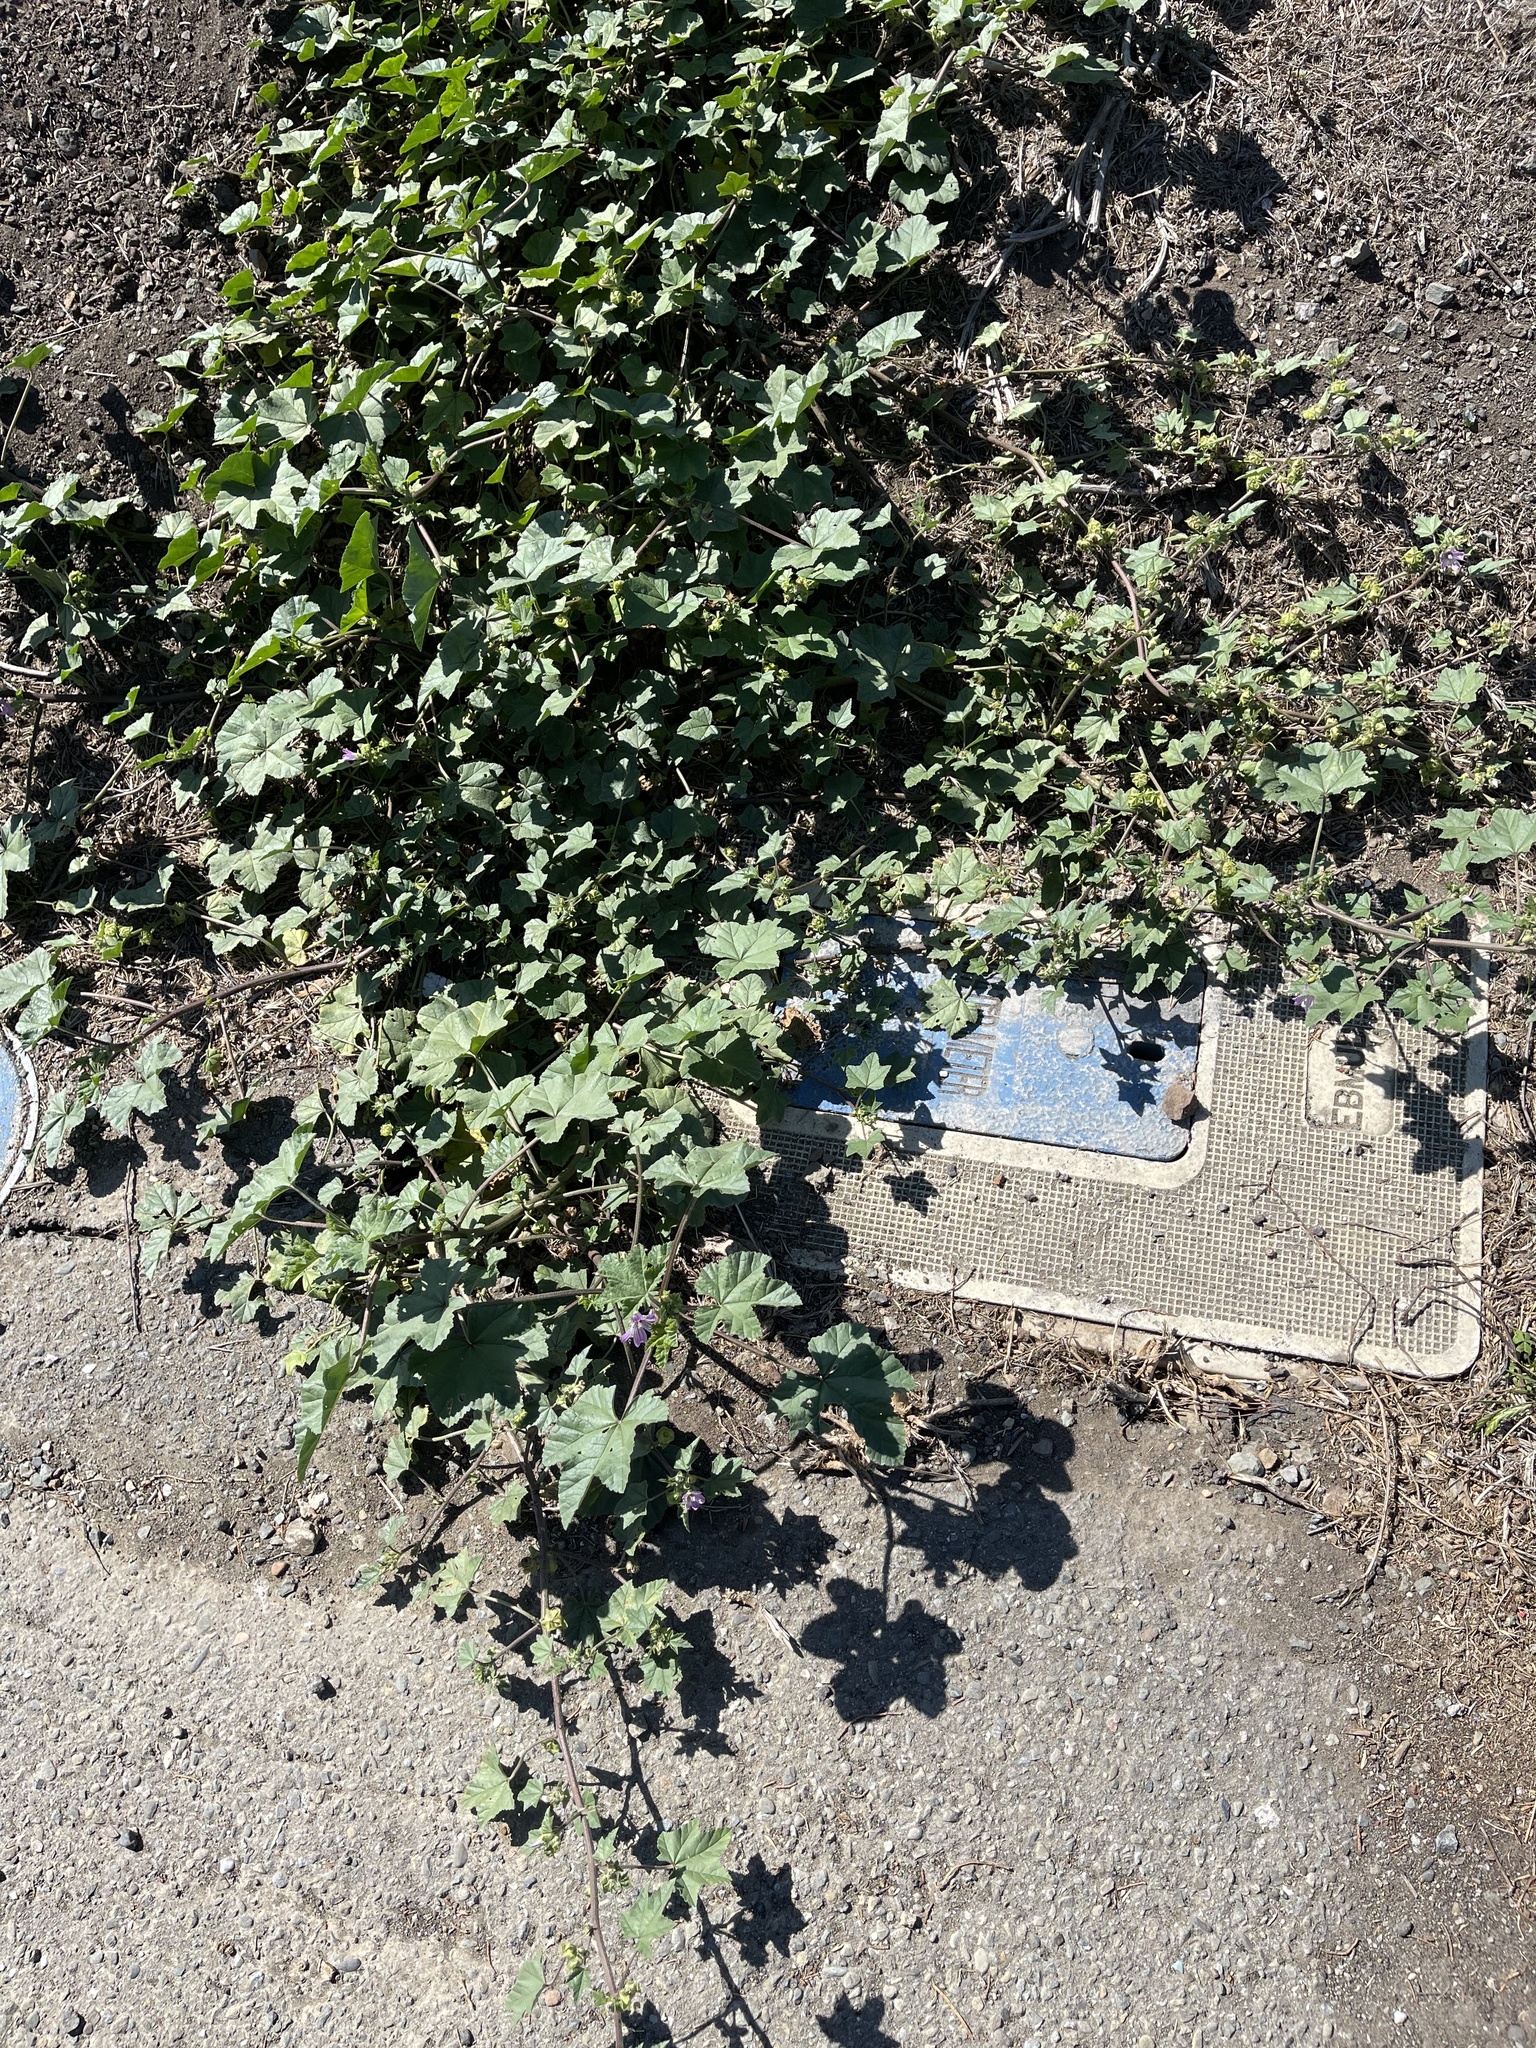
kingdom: Plantae
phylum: Tracheophyta
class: Magnoliopsida
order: Malvales
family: Malvaceae
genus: Malva
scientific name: Malva multiflora
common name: Cheeseweed
